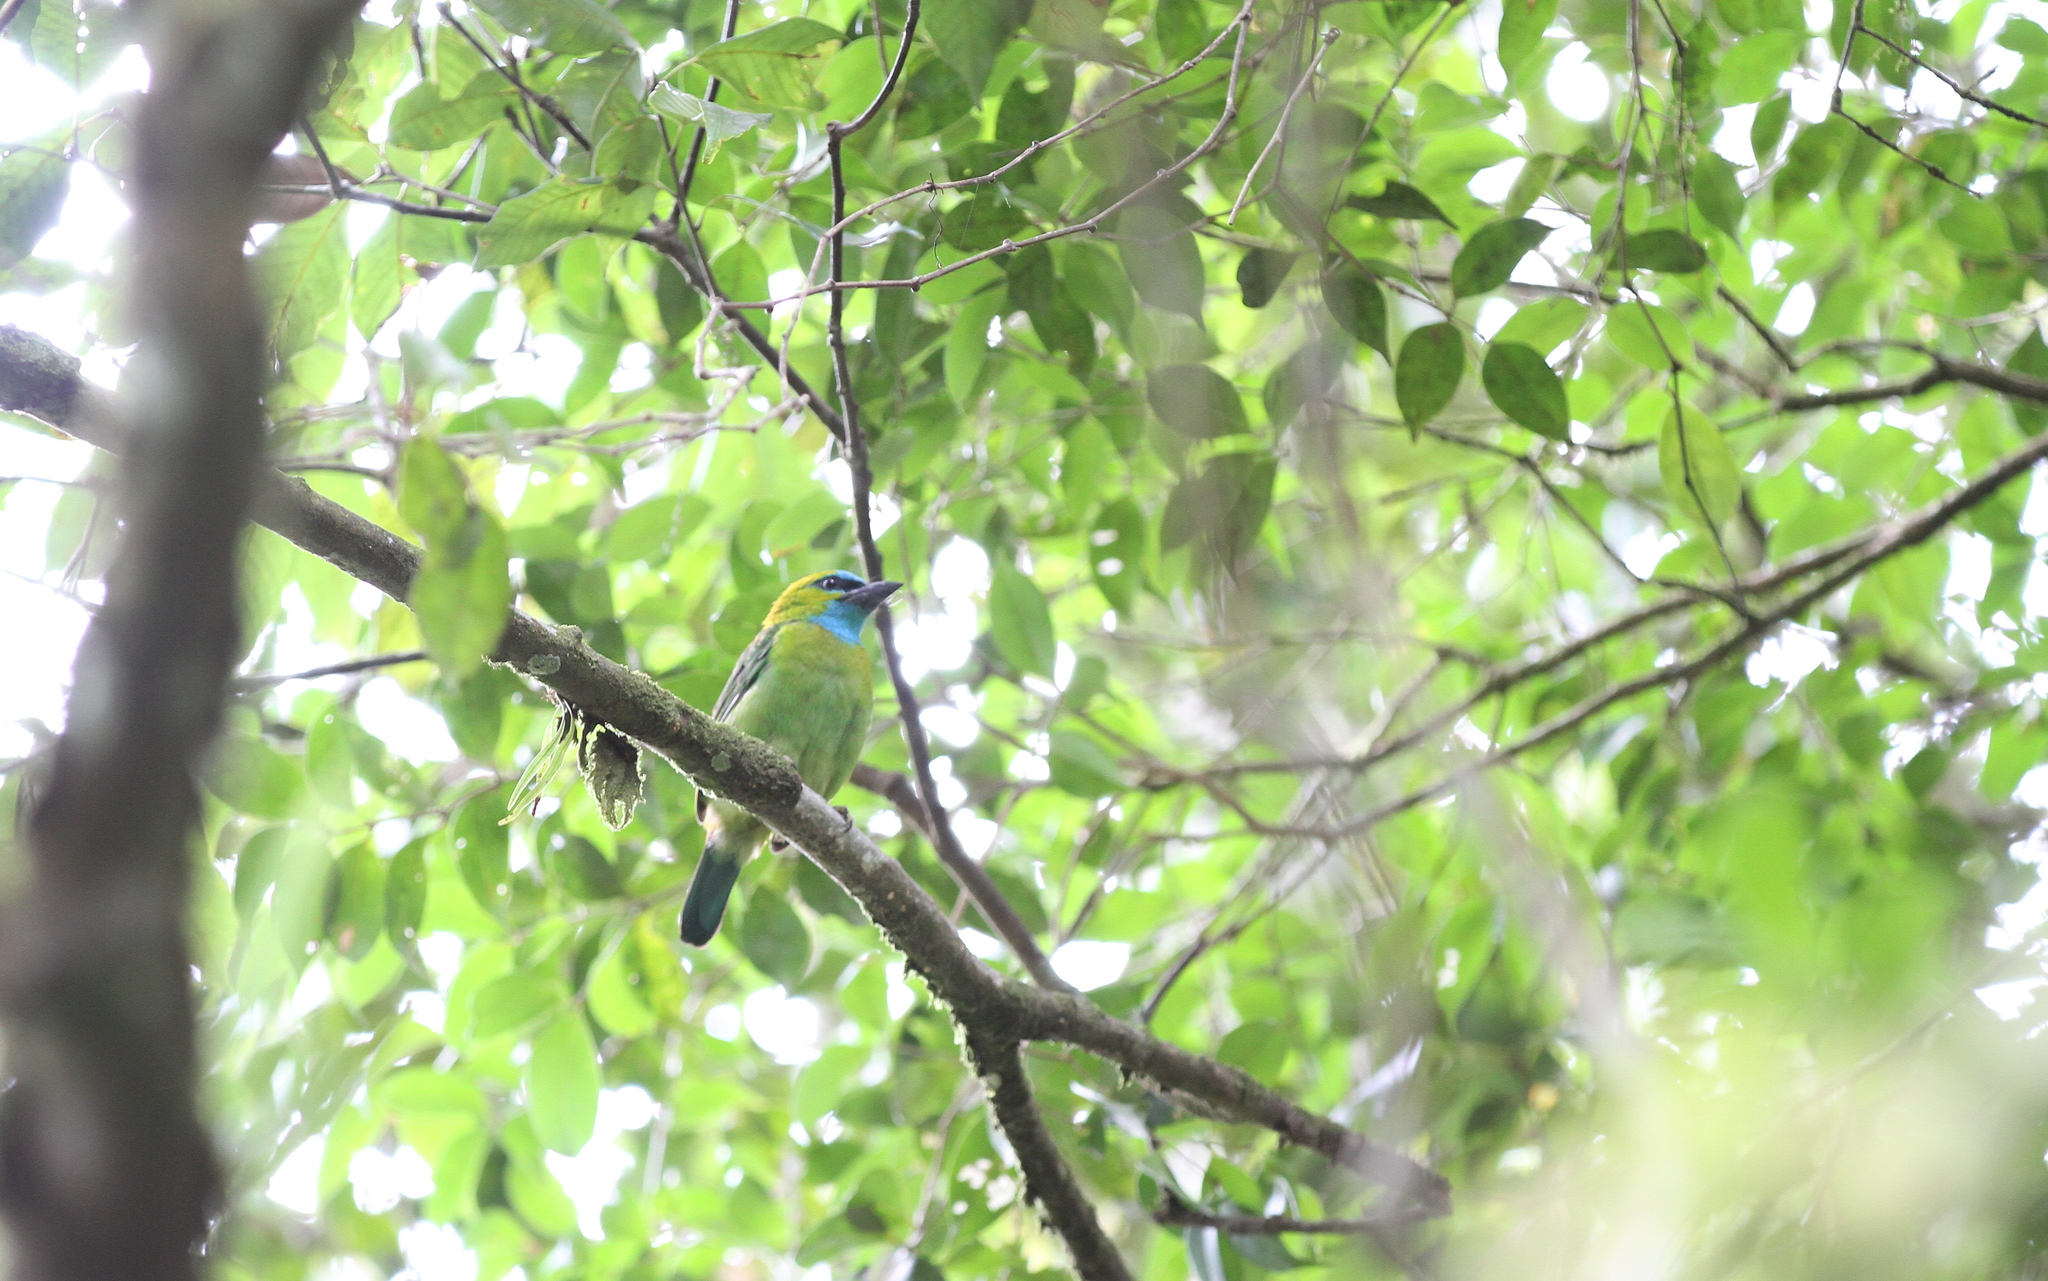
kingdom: Animalia
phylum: Chordata
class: Aves
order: Piciformes
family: Megalaimidae
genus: Psilopogon
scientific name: Psilopogon pulcherrimus
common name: Golden-naped barbet
